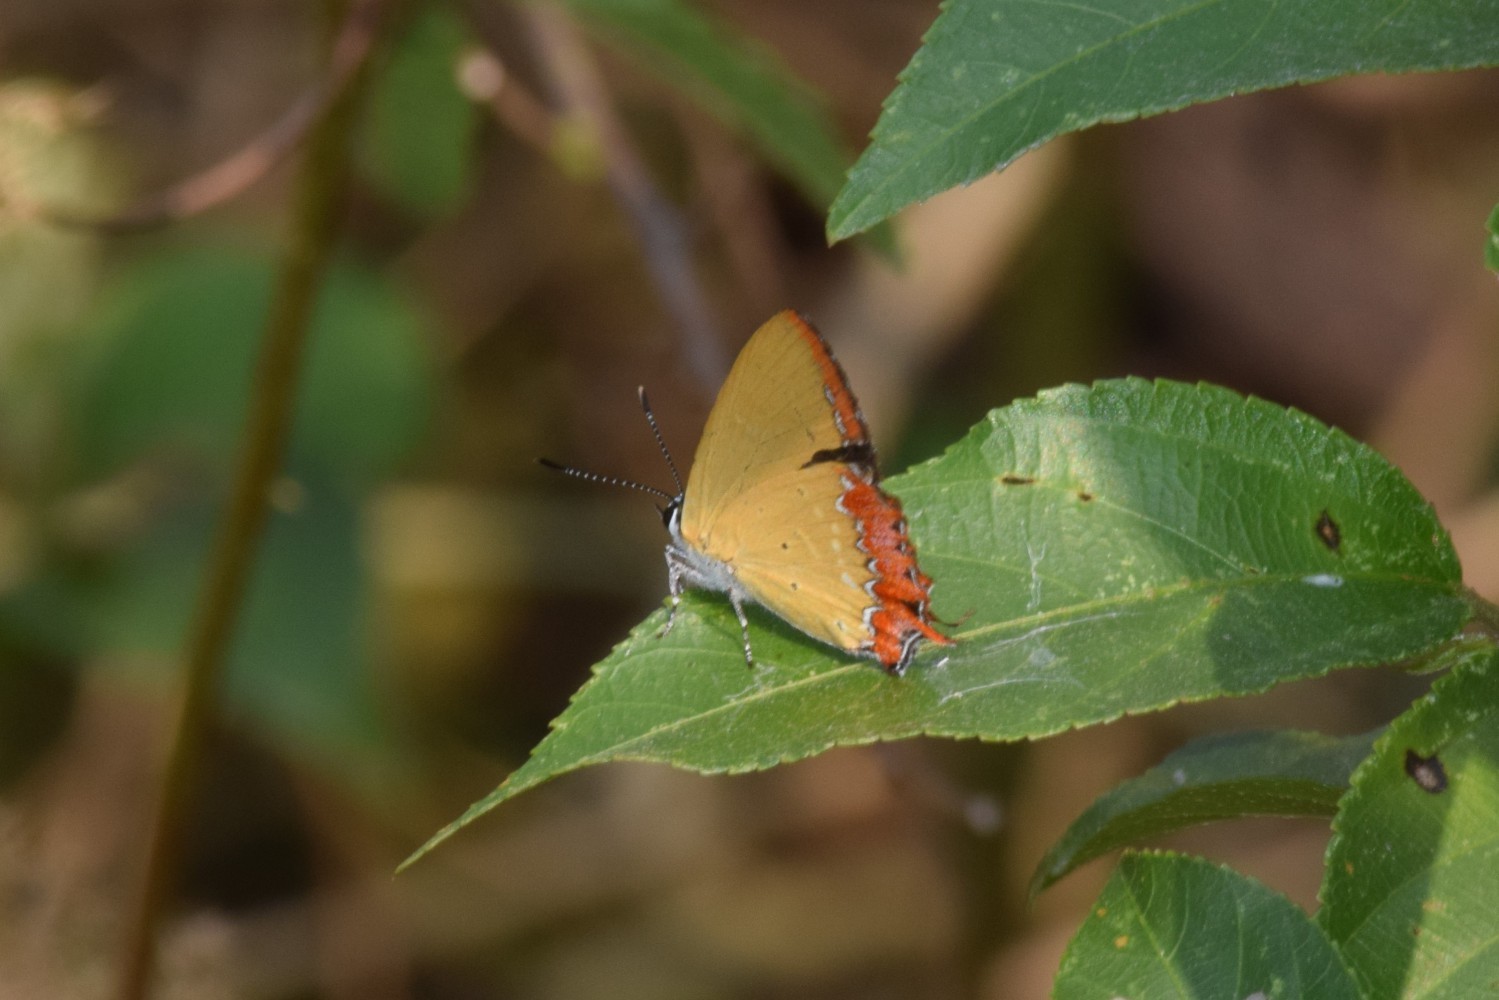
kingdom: Animalia
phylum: Arthropoda
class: Insecta
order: Lepidoptera
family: Lycaenidae
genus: Heliophorus
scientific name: Heliophorus epicles
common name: Purple sapphire
